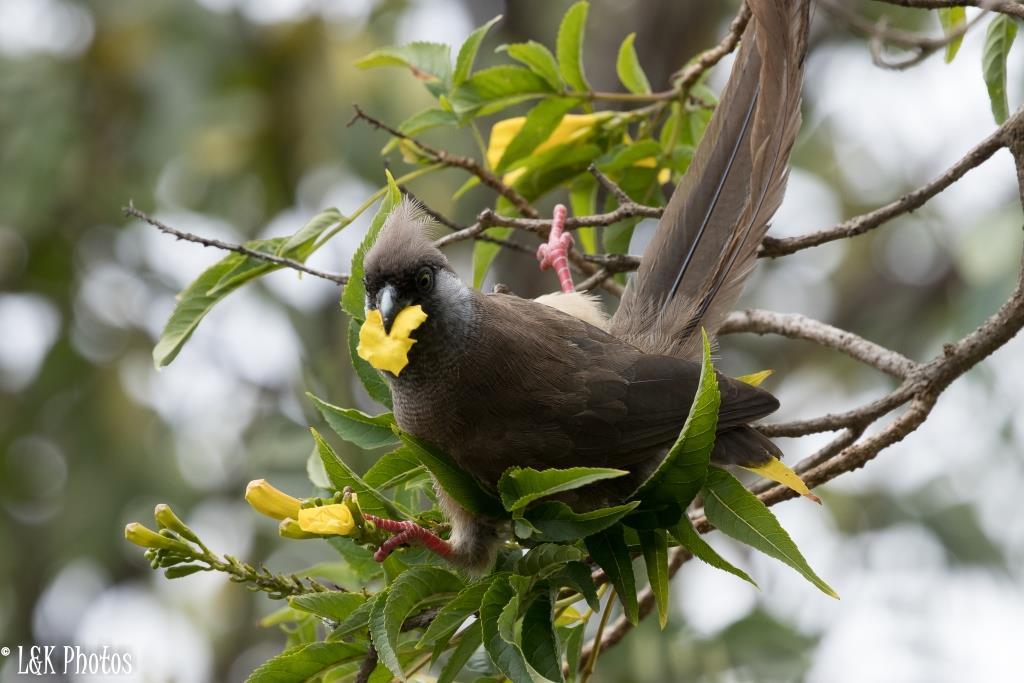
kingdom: Animalia
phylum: Chordata
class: Aves
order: Coliiformes
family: Coliidae
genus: Colius
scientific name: Colius striatus
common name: Speckled mousebird
